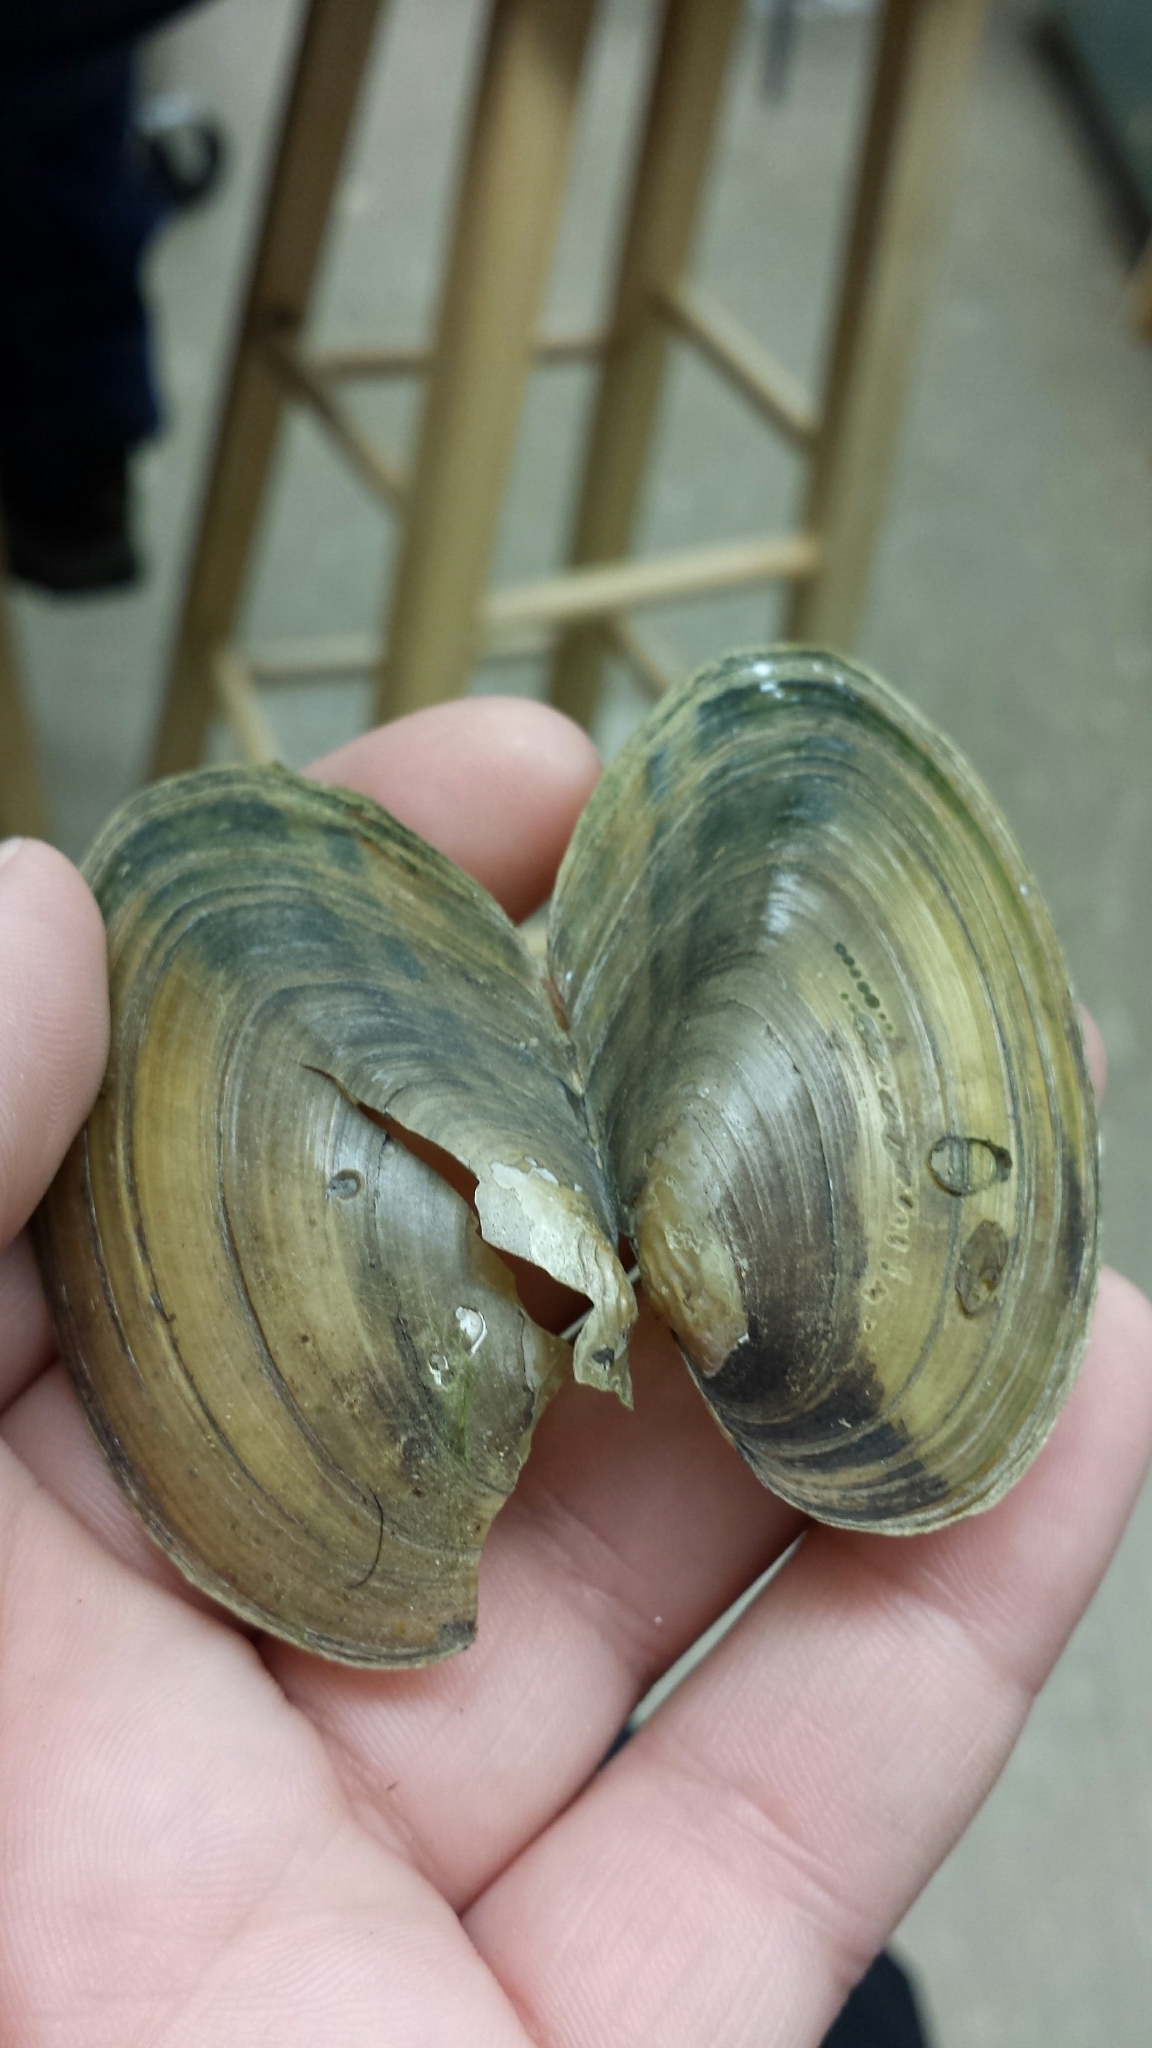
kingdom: Animalia
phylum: Mollusca
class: Bivalvia
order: Unionida
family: Unionidae
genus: Pyganodon
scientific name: Pyganodon cataracta
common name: Eastern floater
